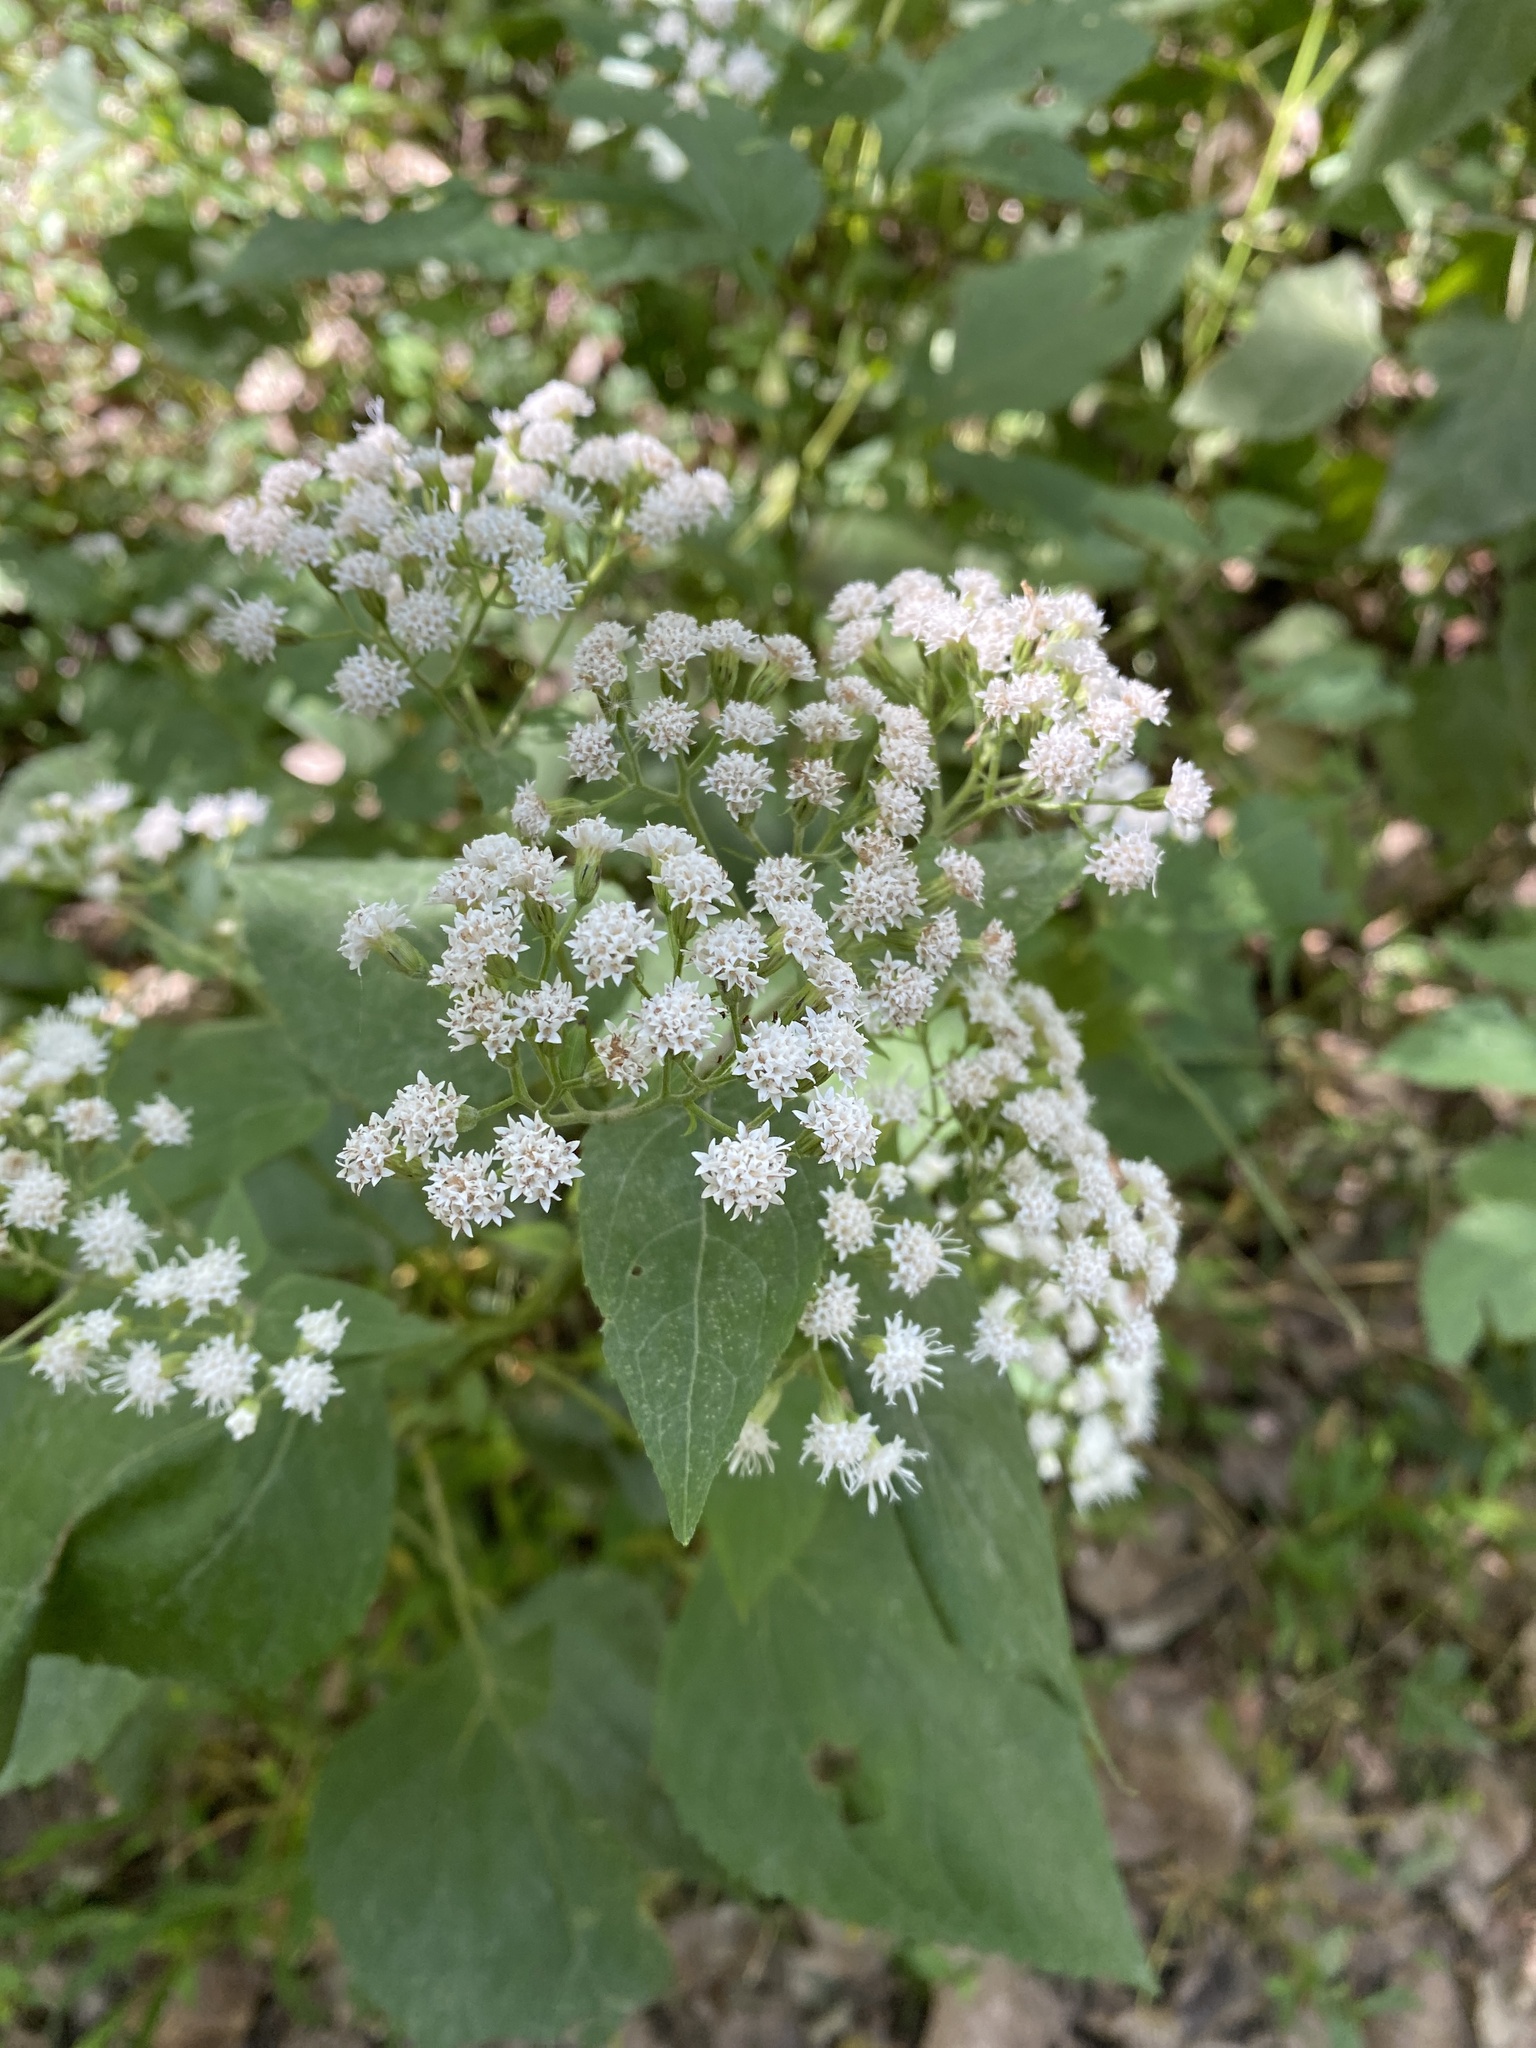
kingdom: Plantae
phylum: Tracheophyta
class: Magnoliopsida
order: Asterales
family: Asteraceae
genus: Ageratina
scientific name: Ageratina altissima
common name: White snakeroot
